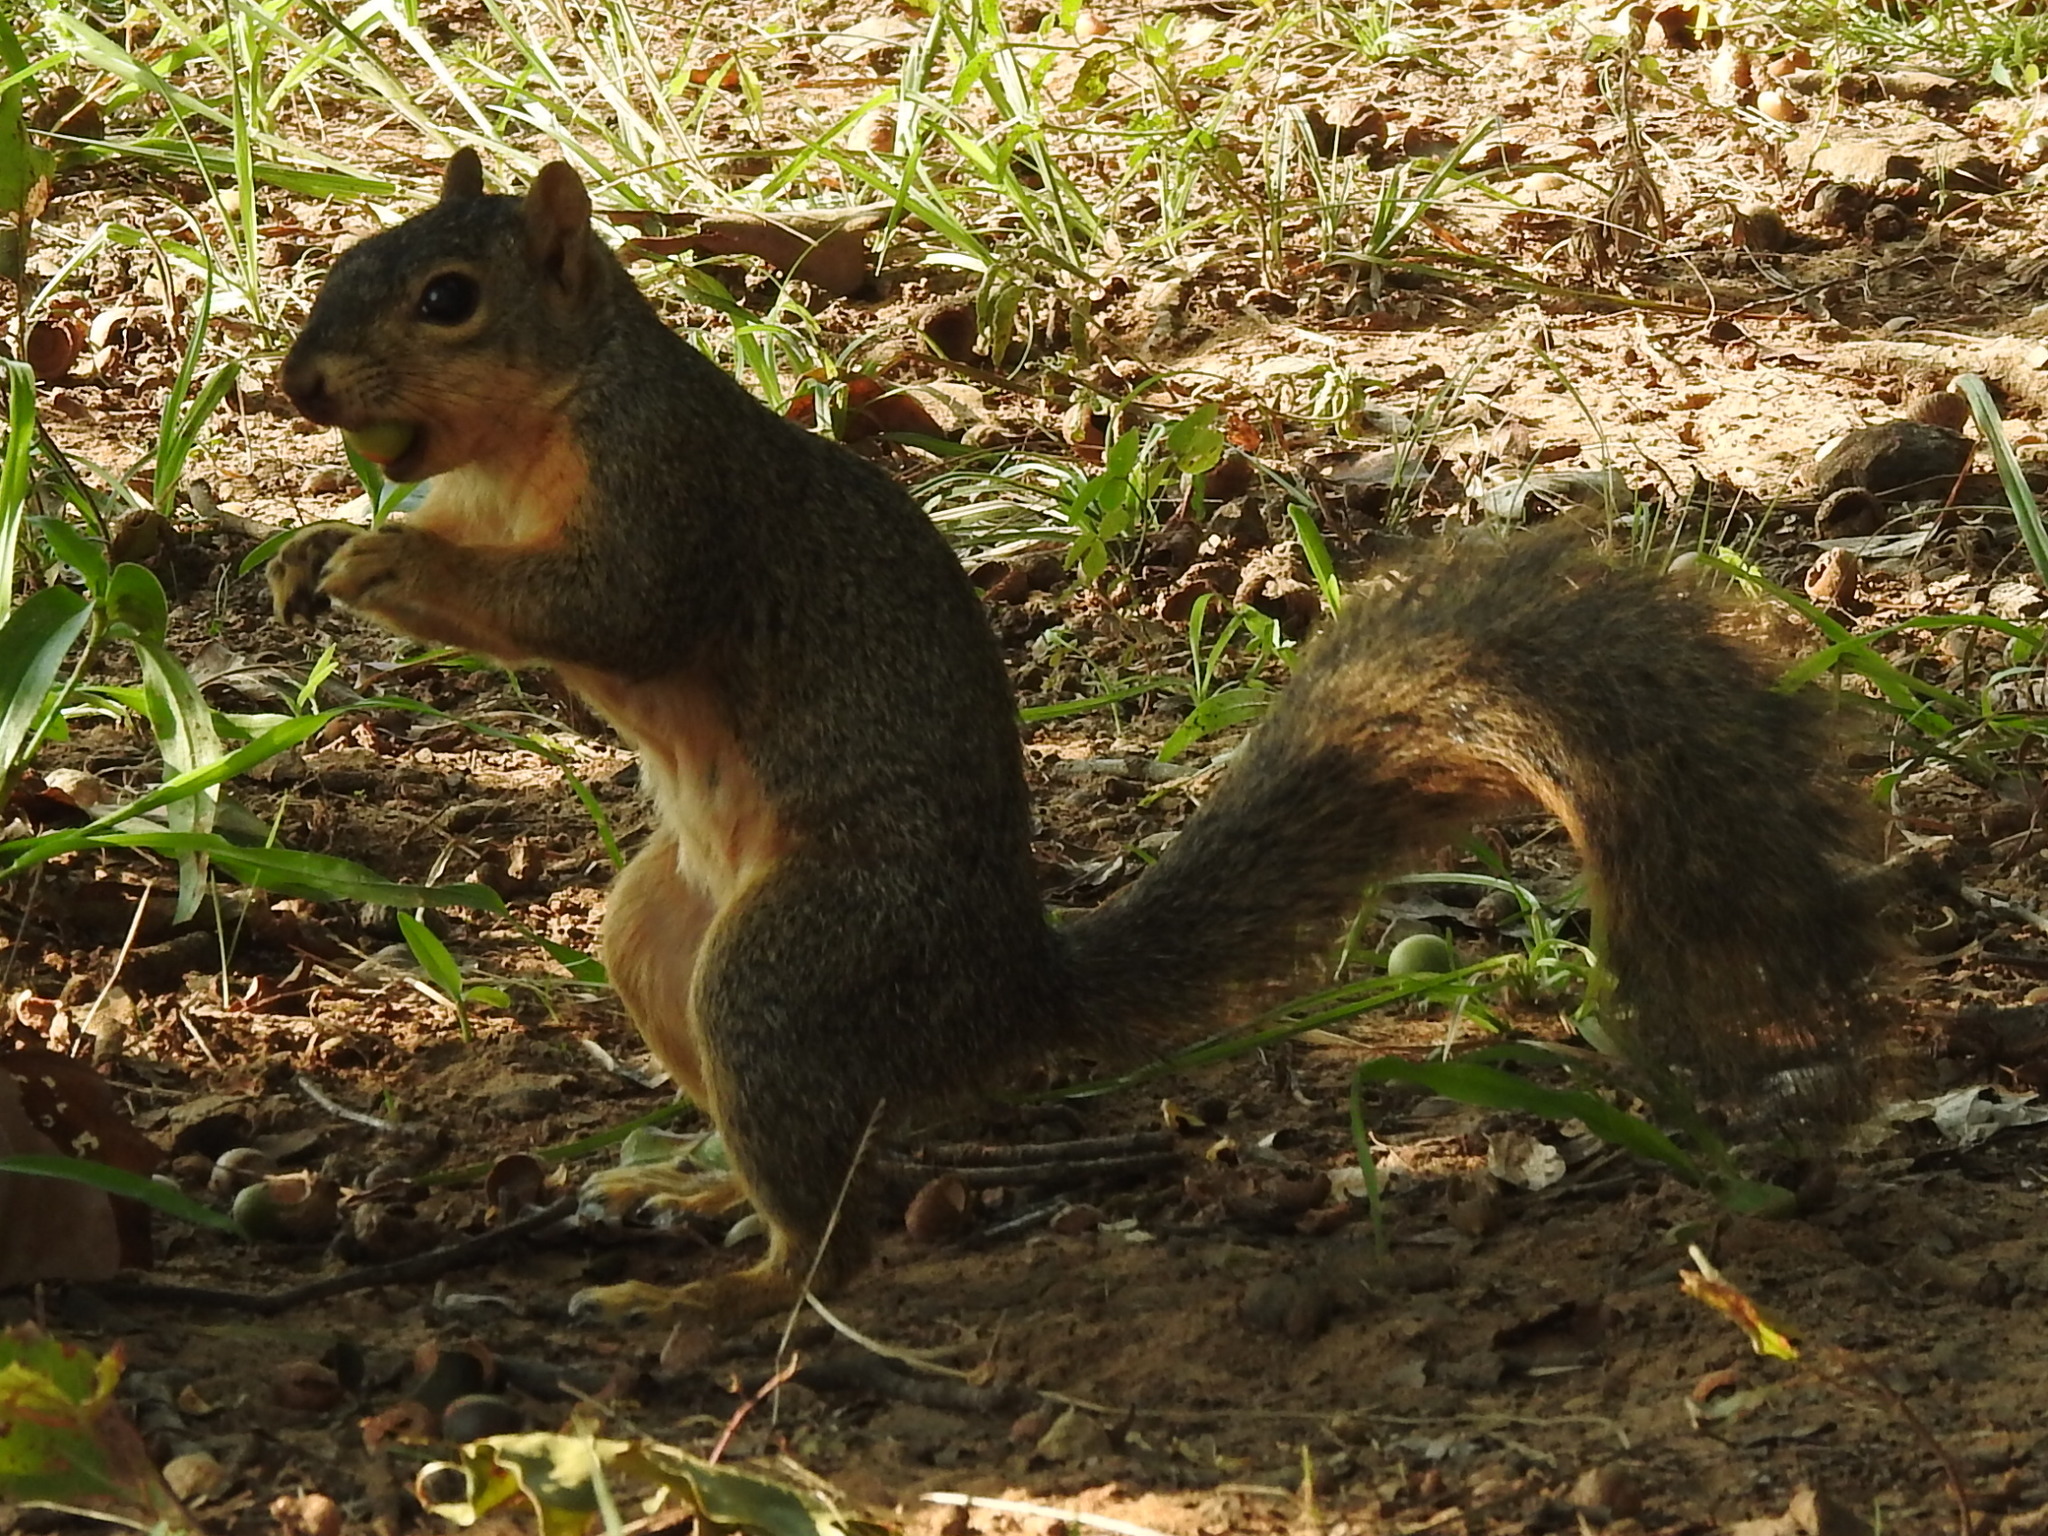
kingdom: Animalia
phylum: Chordata
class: Mammalia
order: Rodentia
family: Sciuridae
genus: Sciurus
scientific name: Sciurus niger
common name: Fox squirrel
